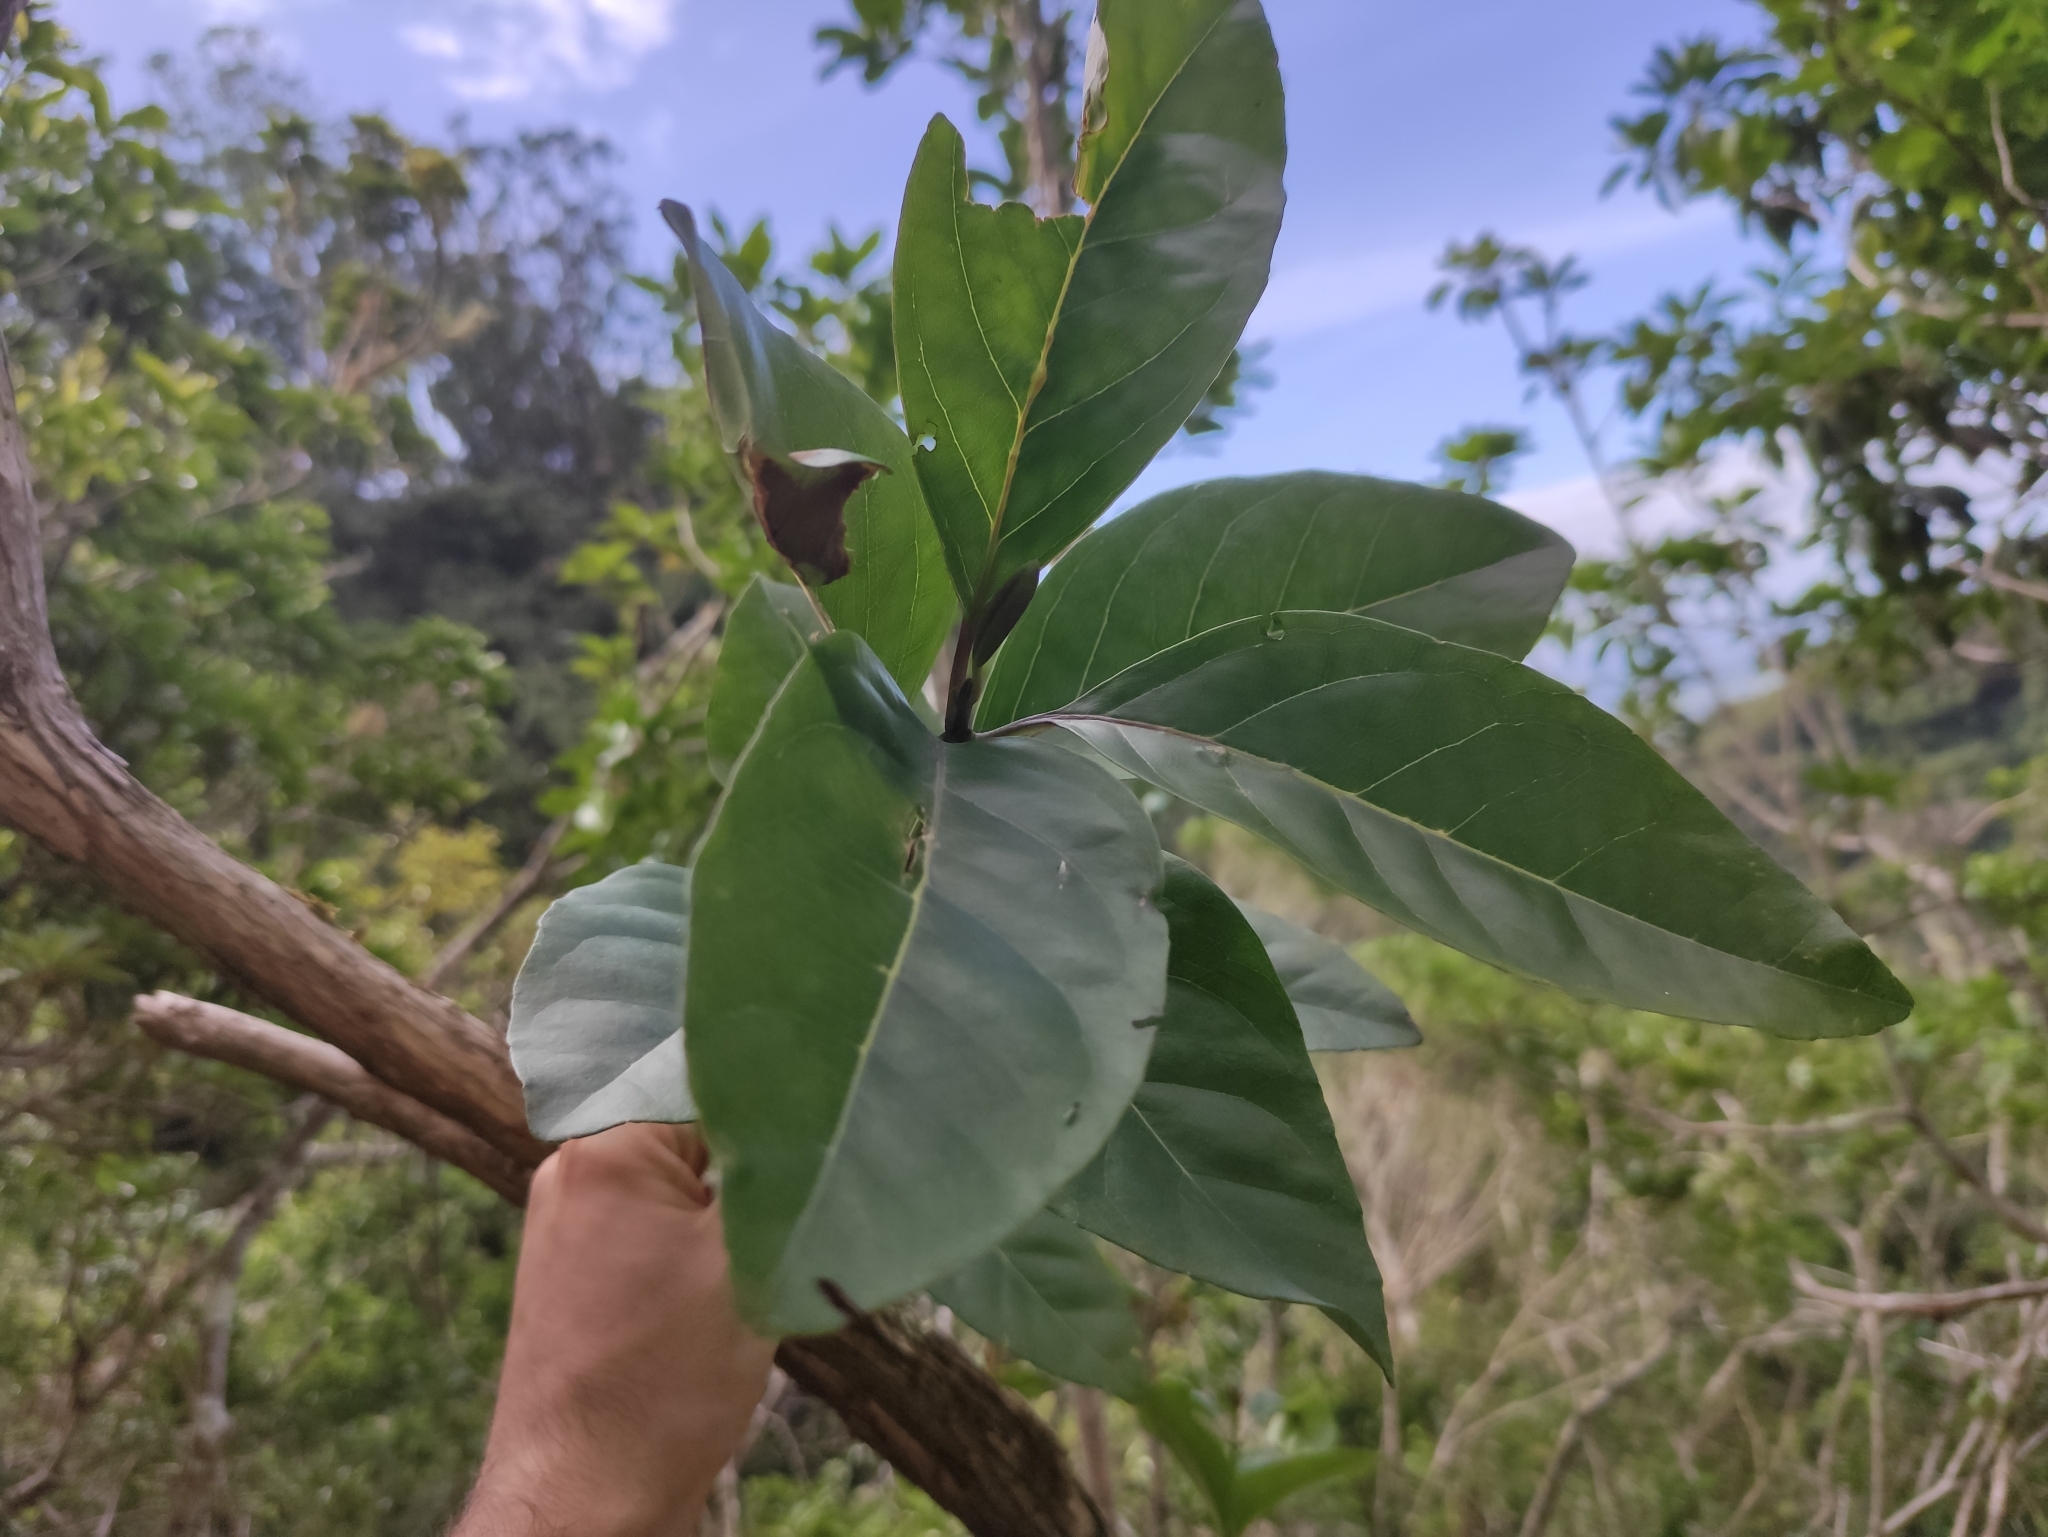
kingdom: Plantae
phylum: Tracheophyta
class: Magnoliopsida
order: Lamiales
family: Stilbaceae
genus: Nuxia
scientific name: Nuxia verticillata
